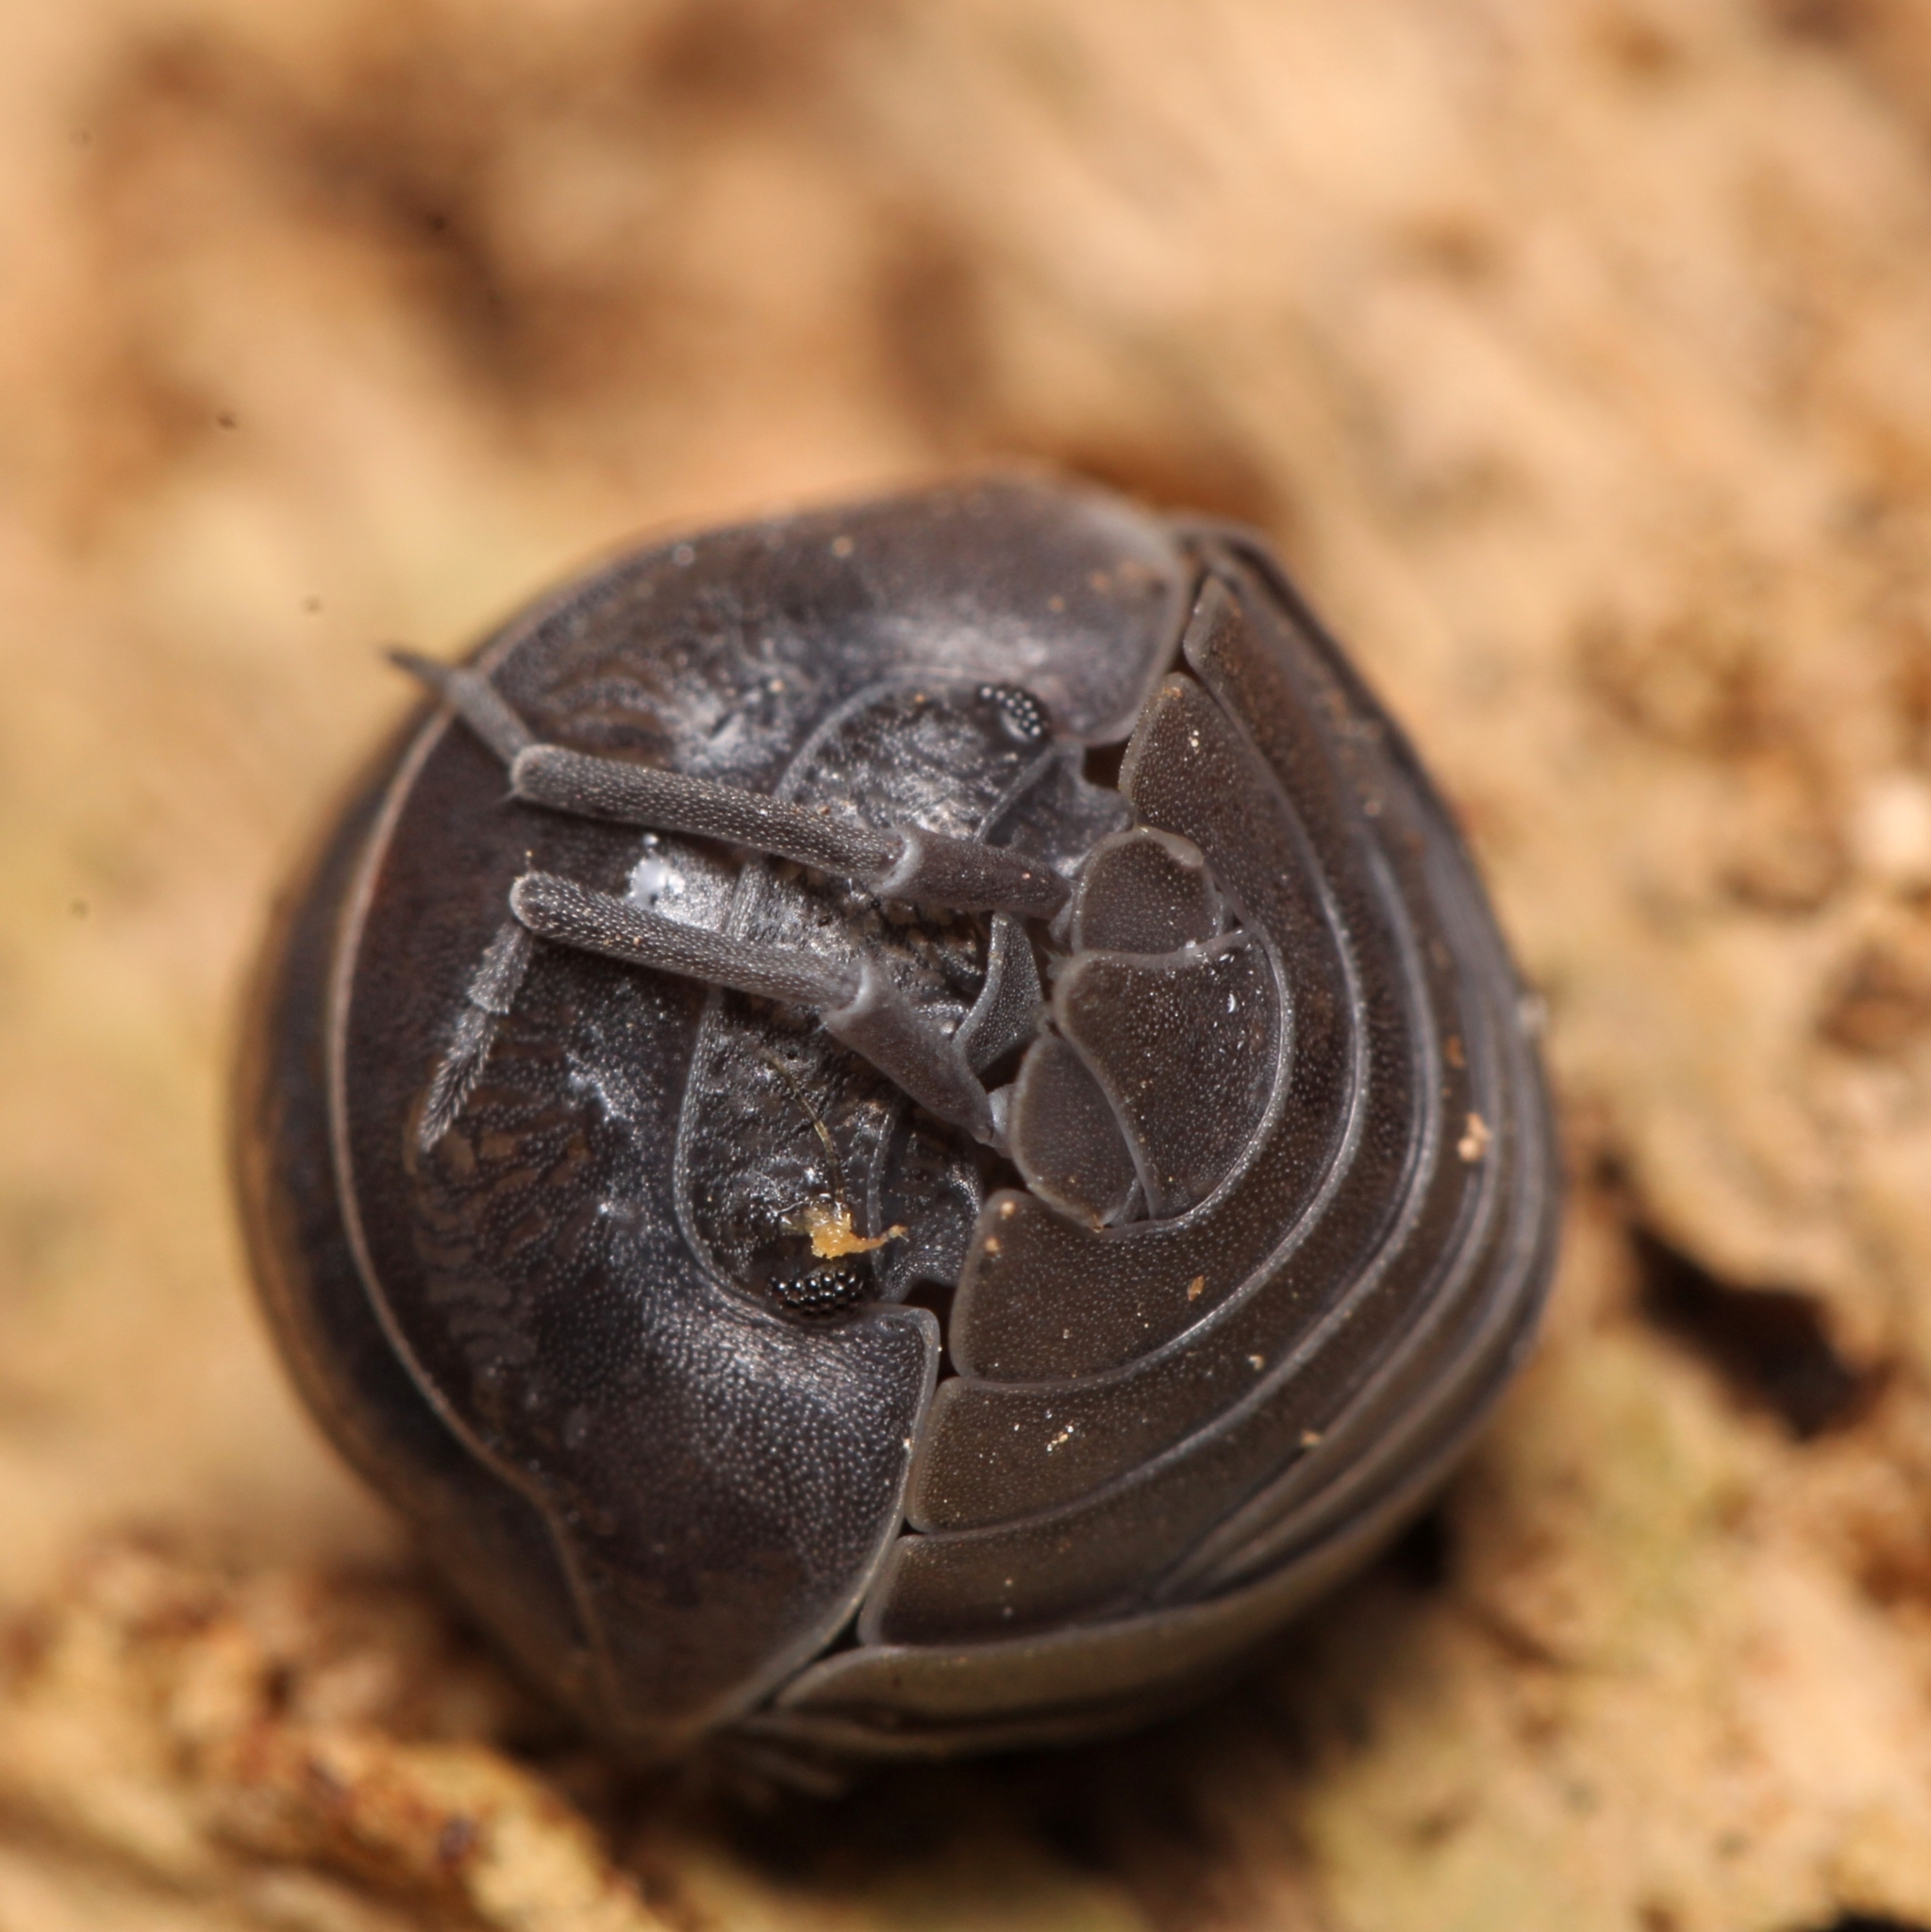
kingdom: Animalia
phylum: Arthropoda
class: Malacostraca
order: Isopoda
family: Armadillidiidae
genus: Armadillidium
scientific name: Armadillidium nasatum
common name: Isopod
